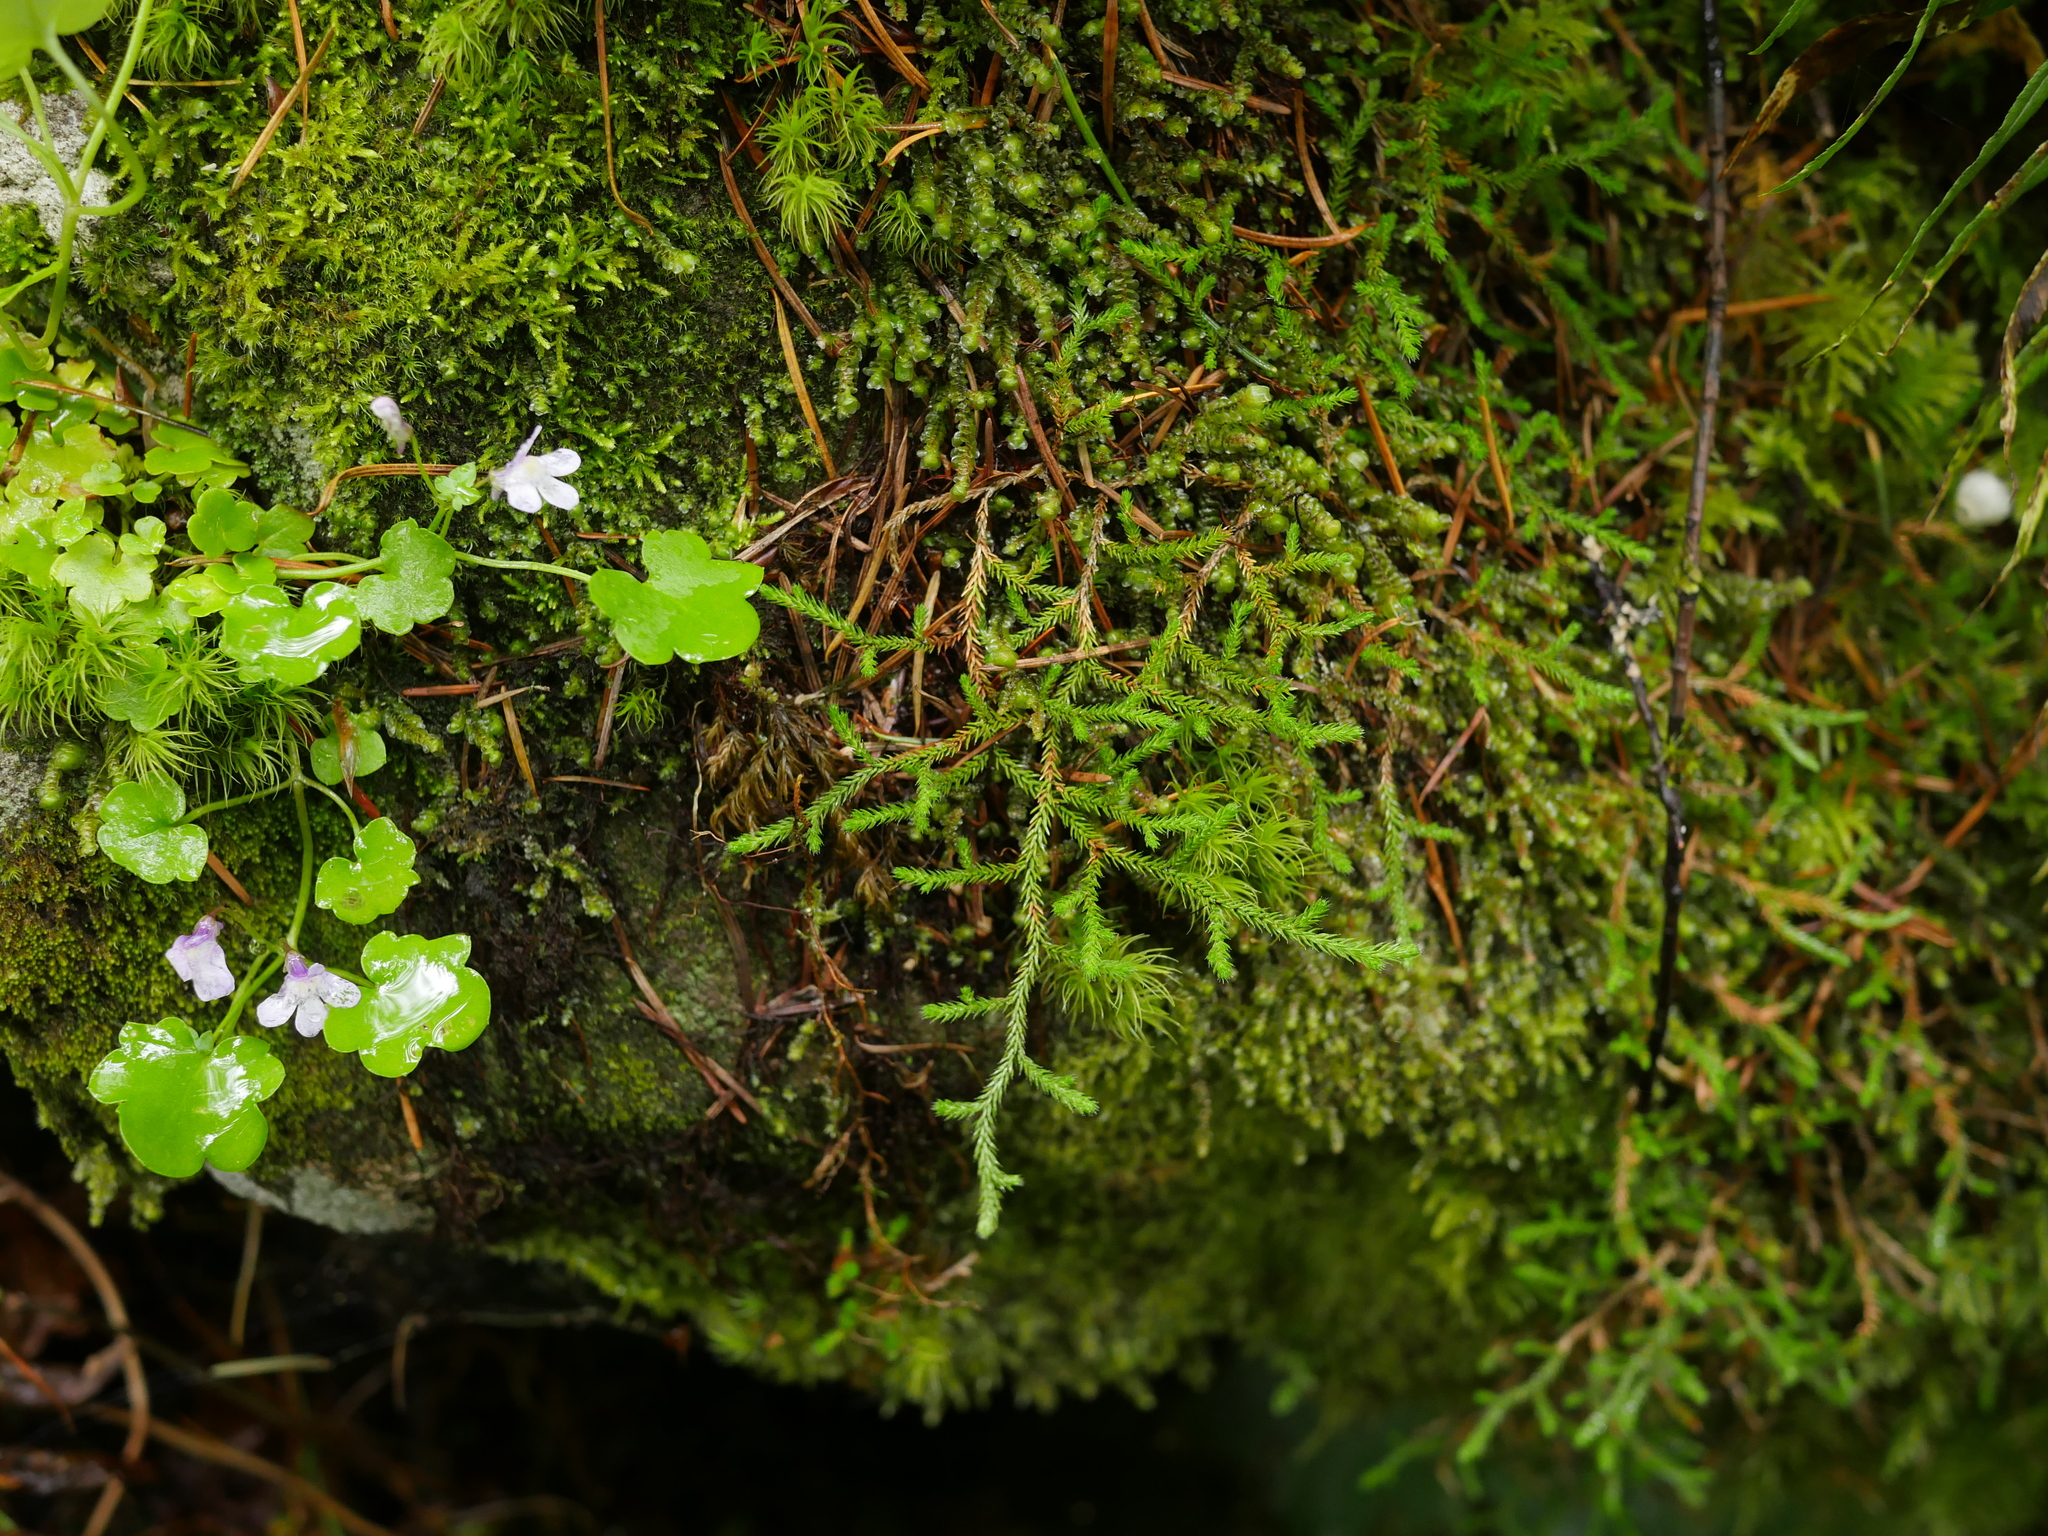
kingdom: Plantae
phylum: Tracheophyta
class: Lycopodiopsida
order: Selaginellales
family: Selaginellaceae
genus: Selaginella
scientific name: Selaginella oregana
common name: Oregon selaginella
